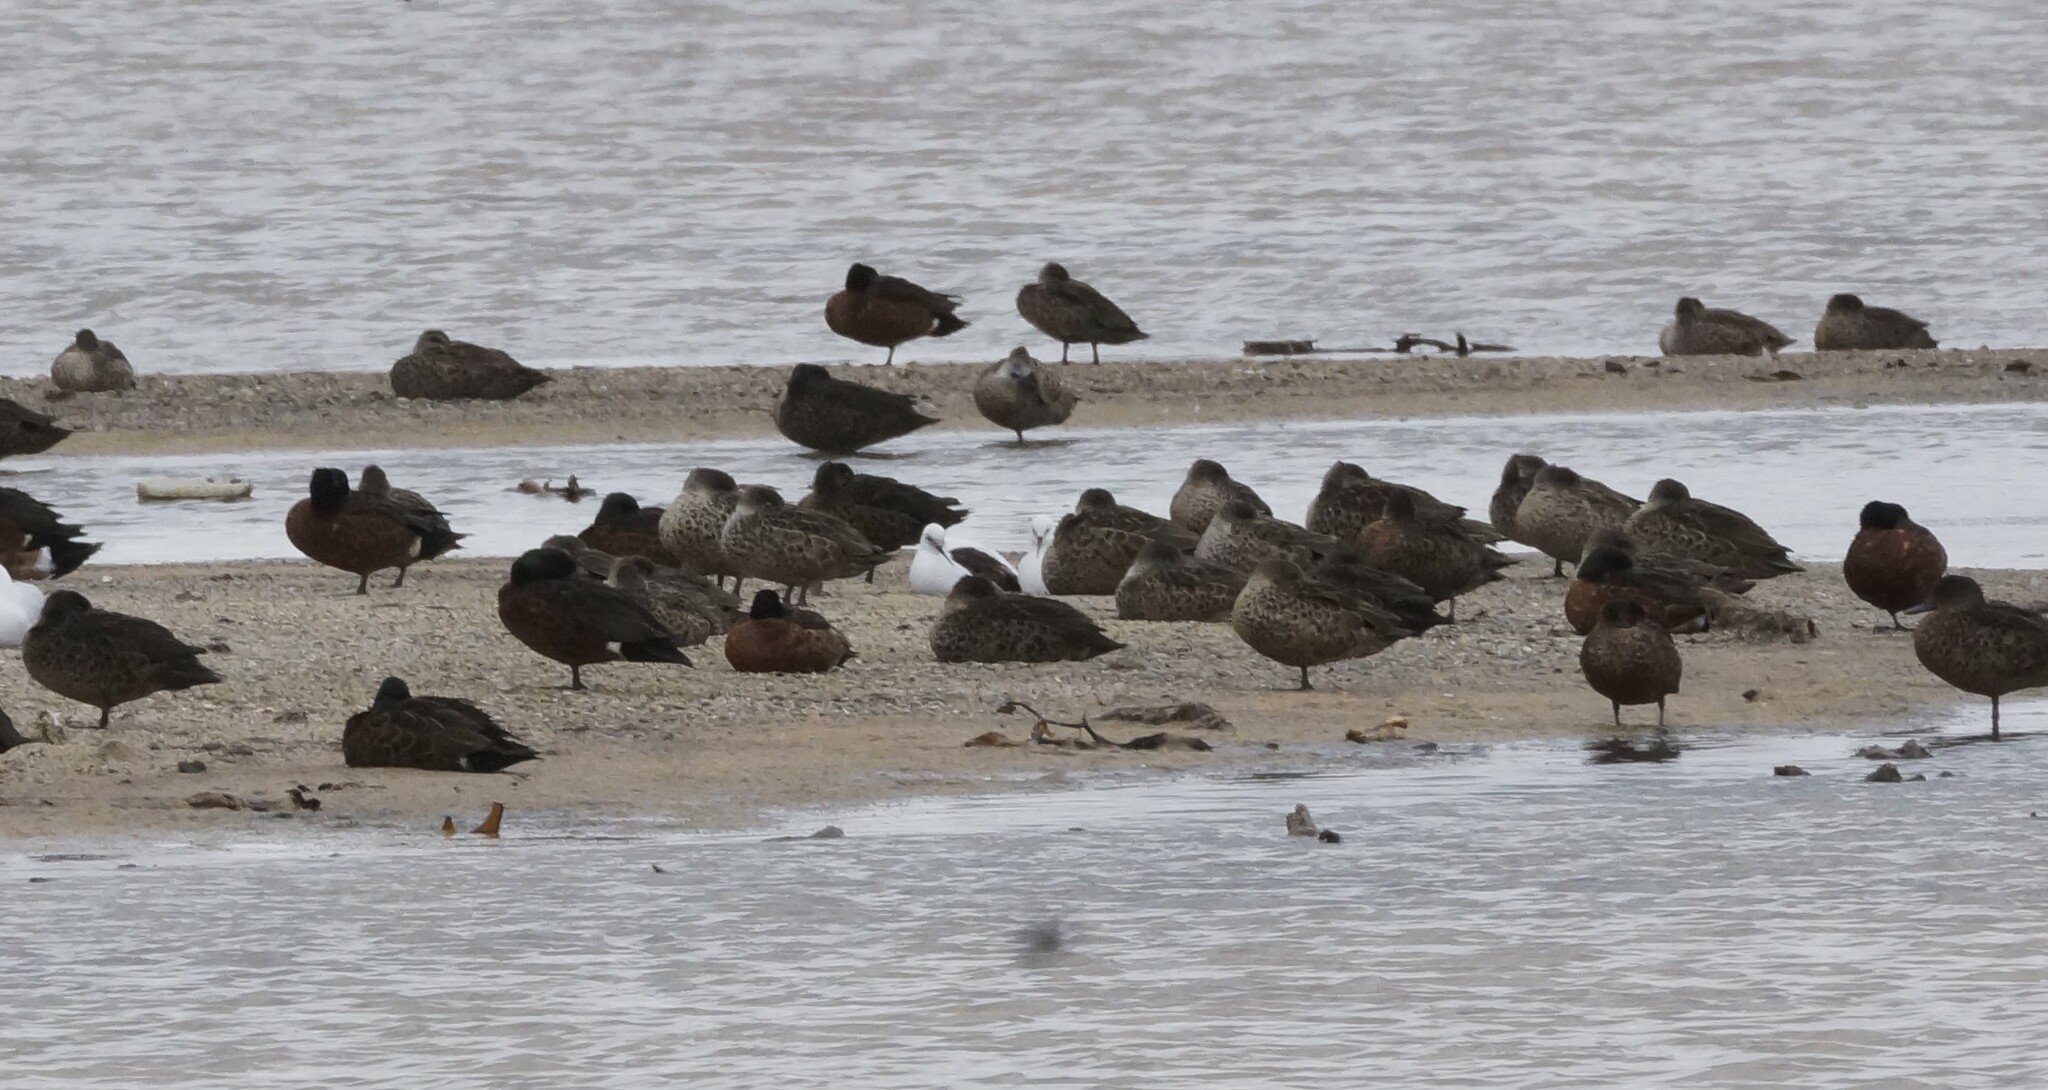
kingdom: Animalia
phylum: Chordata
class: Aves
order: Anseriformes
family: Anatidae
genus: Anas
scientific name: Anas castanea
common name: Chestnut teal
